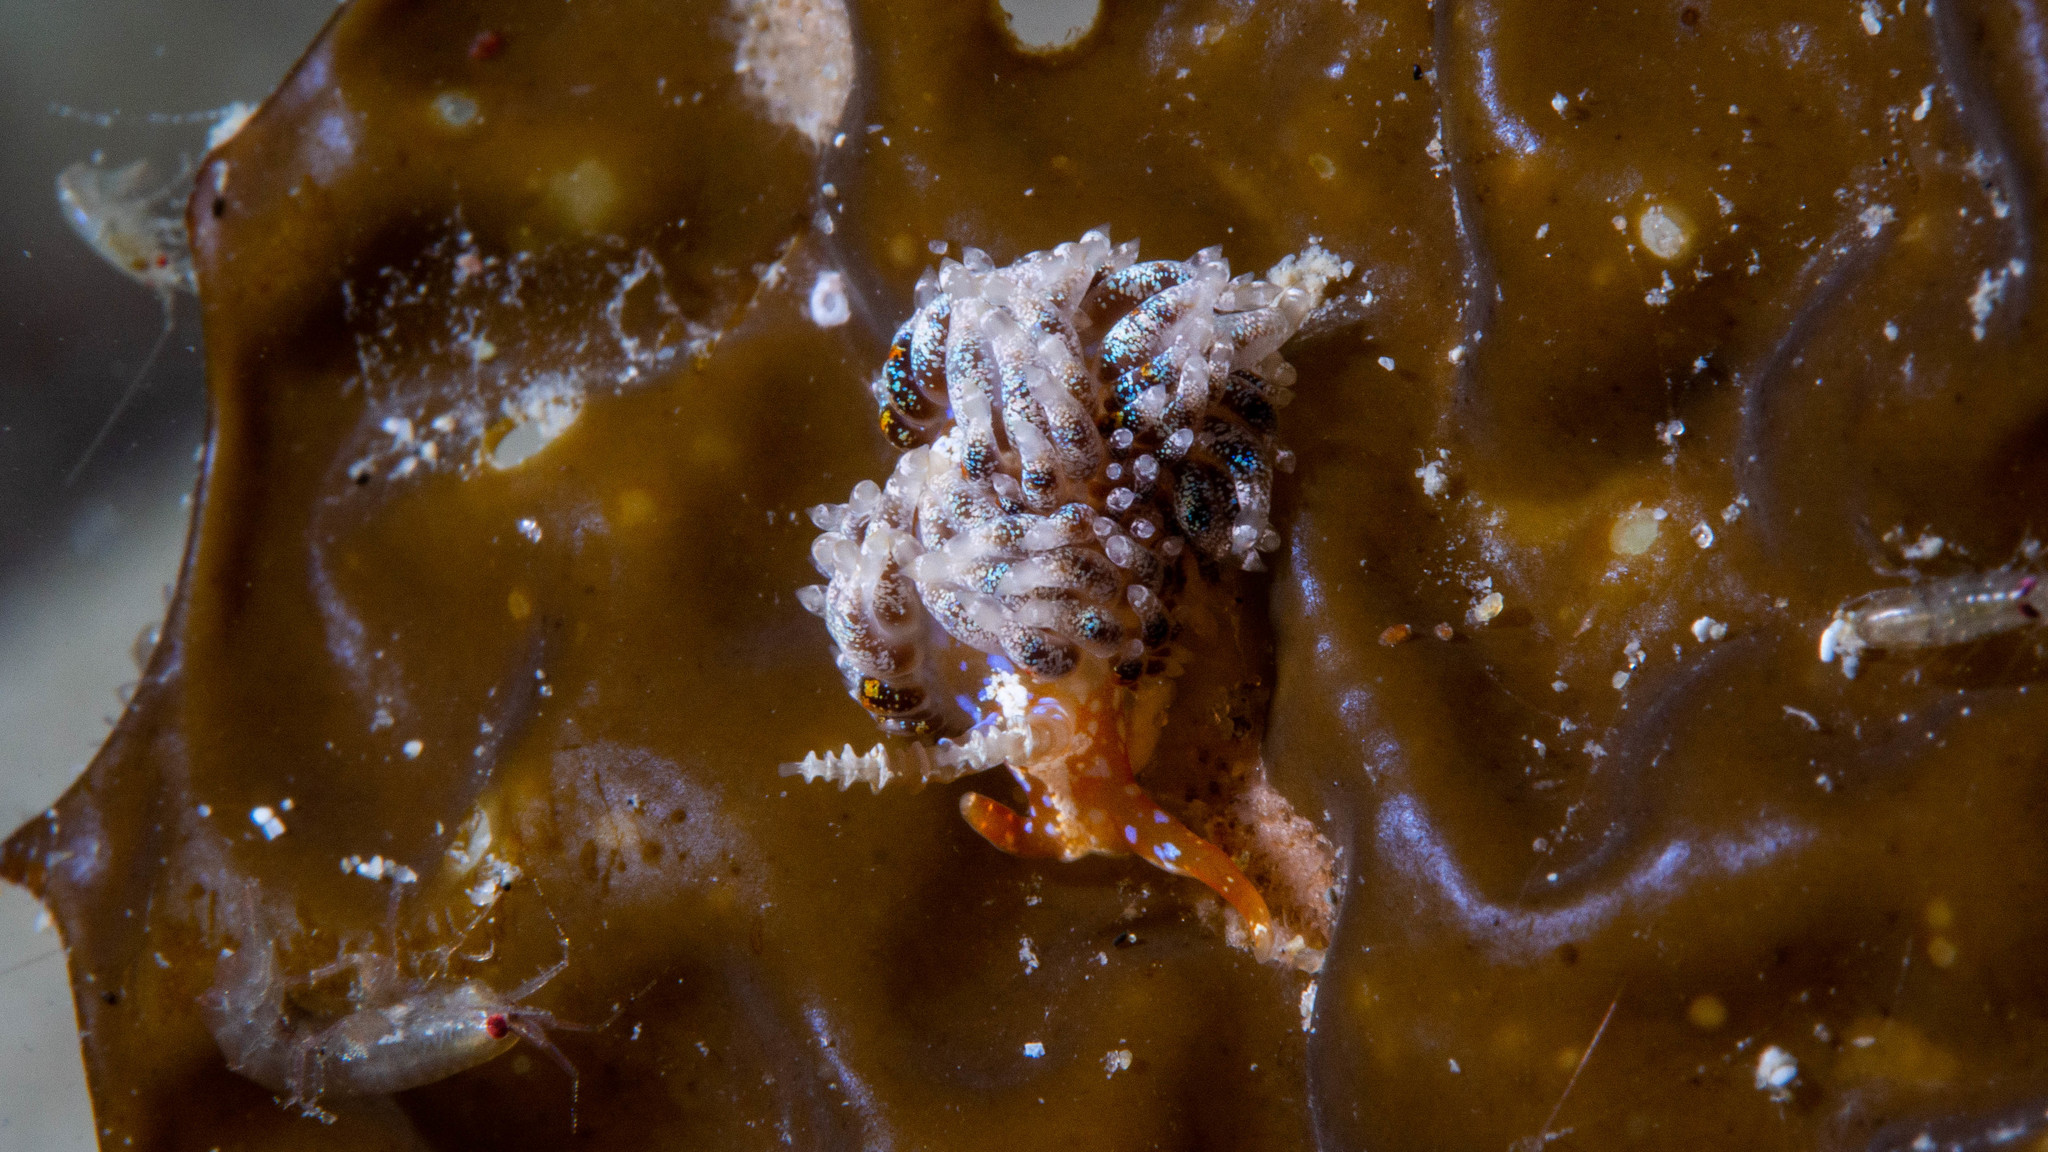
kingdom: Animalia
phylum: Mollusca
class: Gastropoda
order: Nudibranchia
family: Facelinidae
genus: Austraeolis
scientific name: Austraeolis ornata
